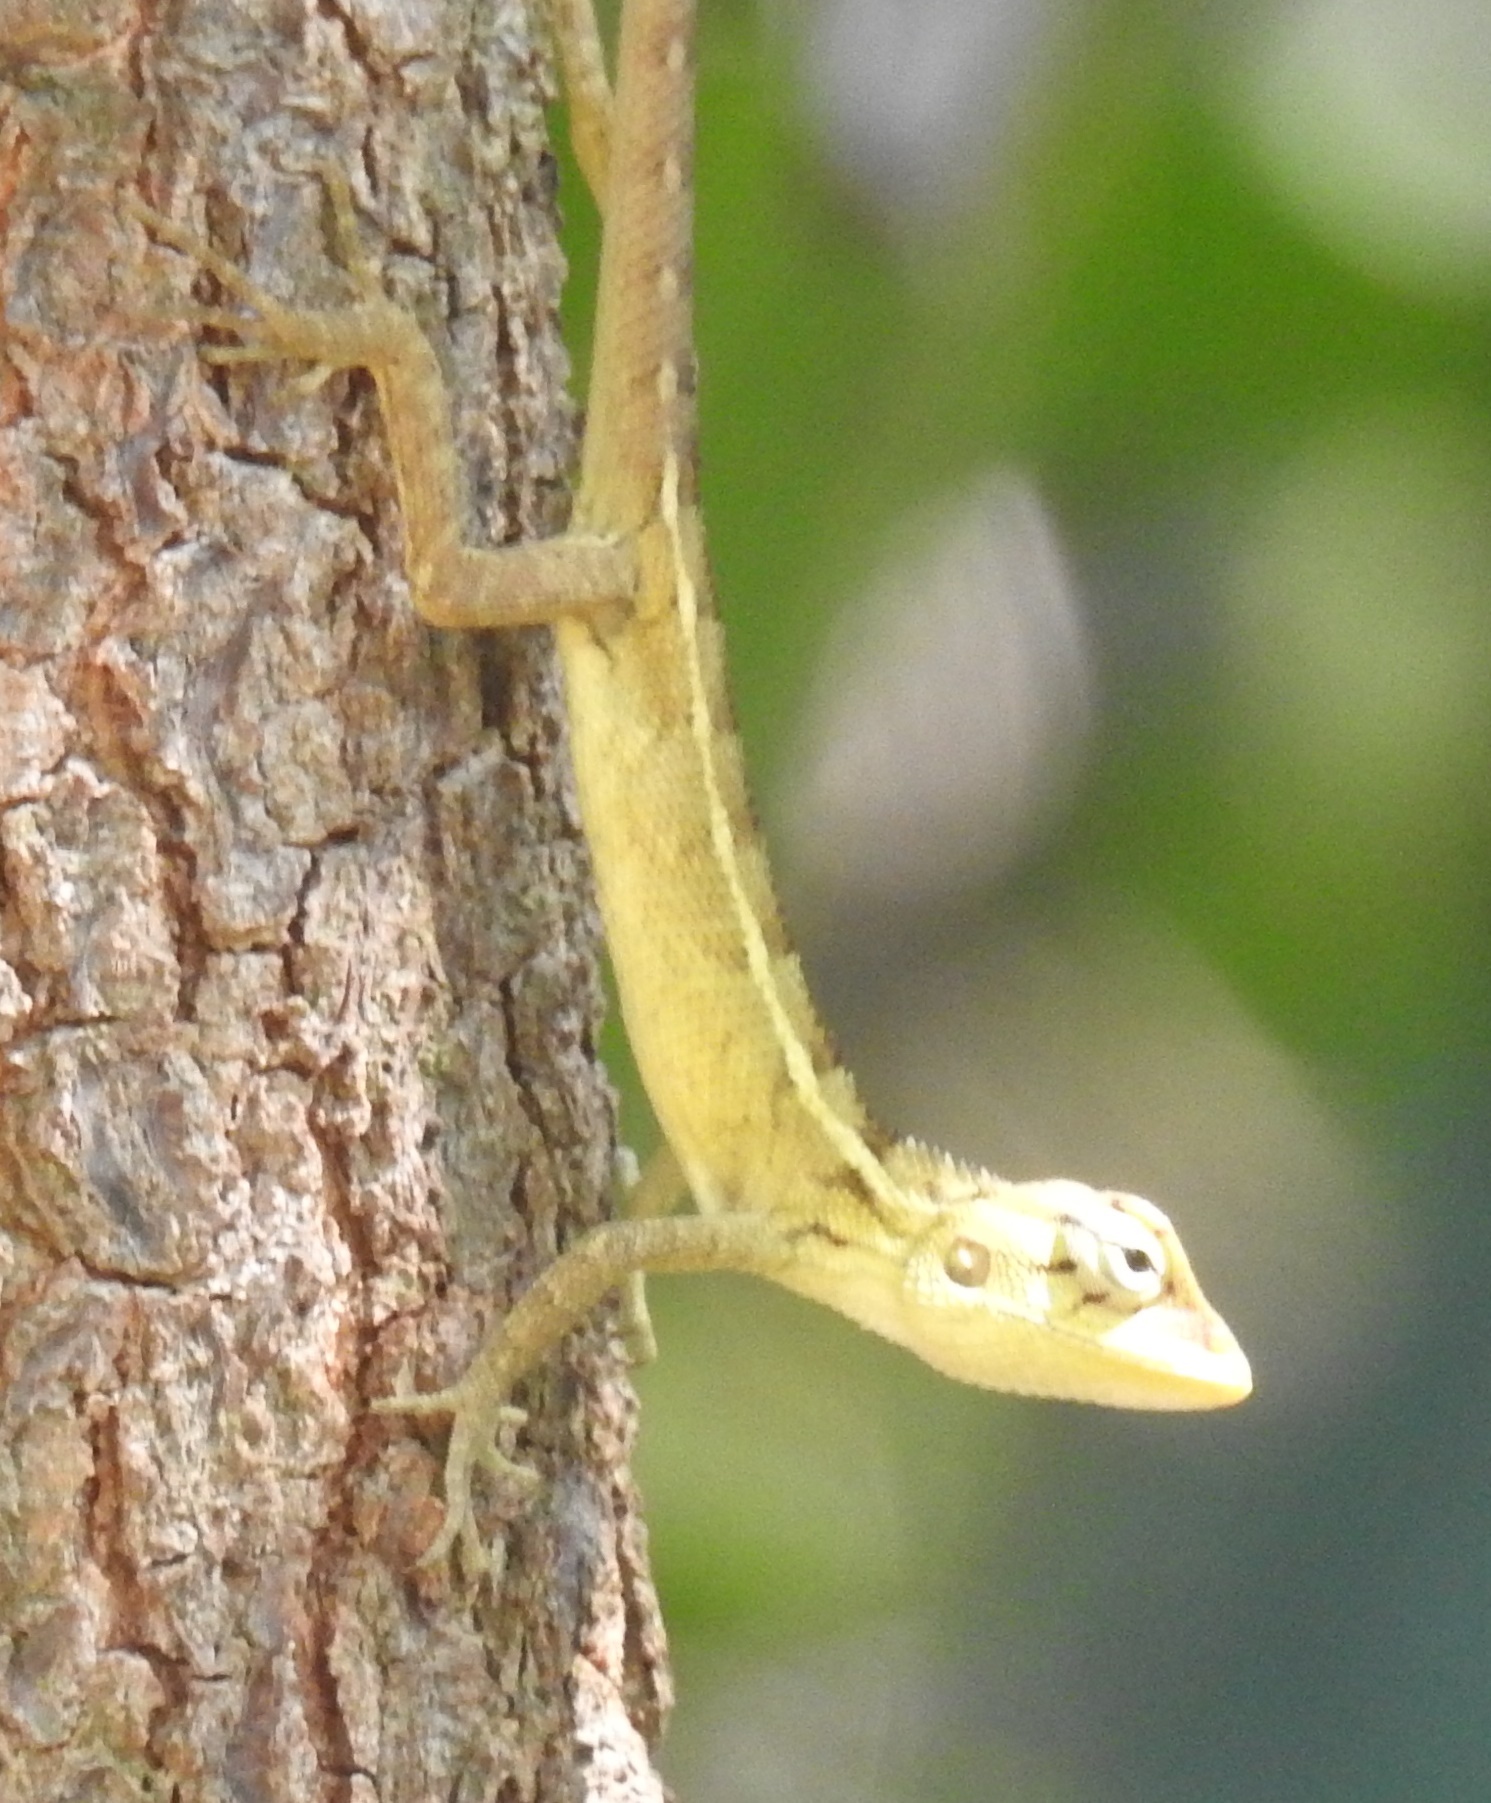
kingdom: Animalia
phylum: Chordata
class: Squamata
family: Agamidae
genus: Calotes
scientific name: Calotes versicolor
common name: Oriental garden lizard
